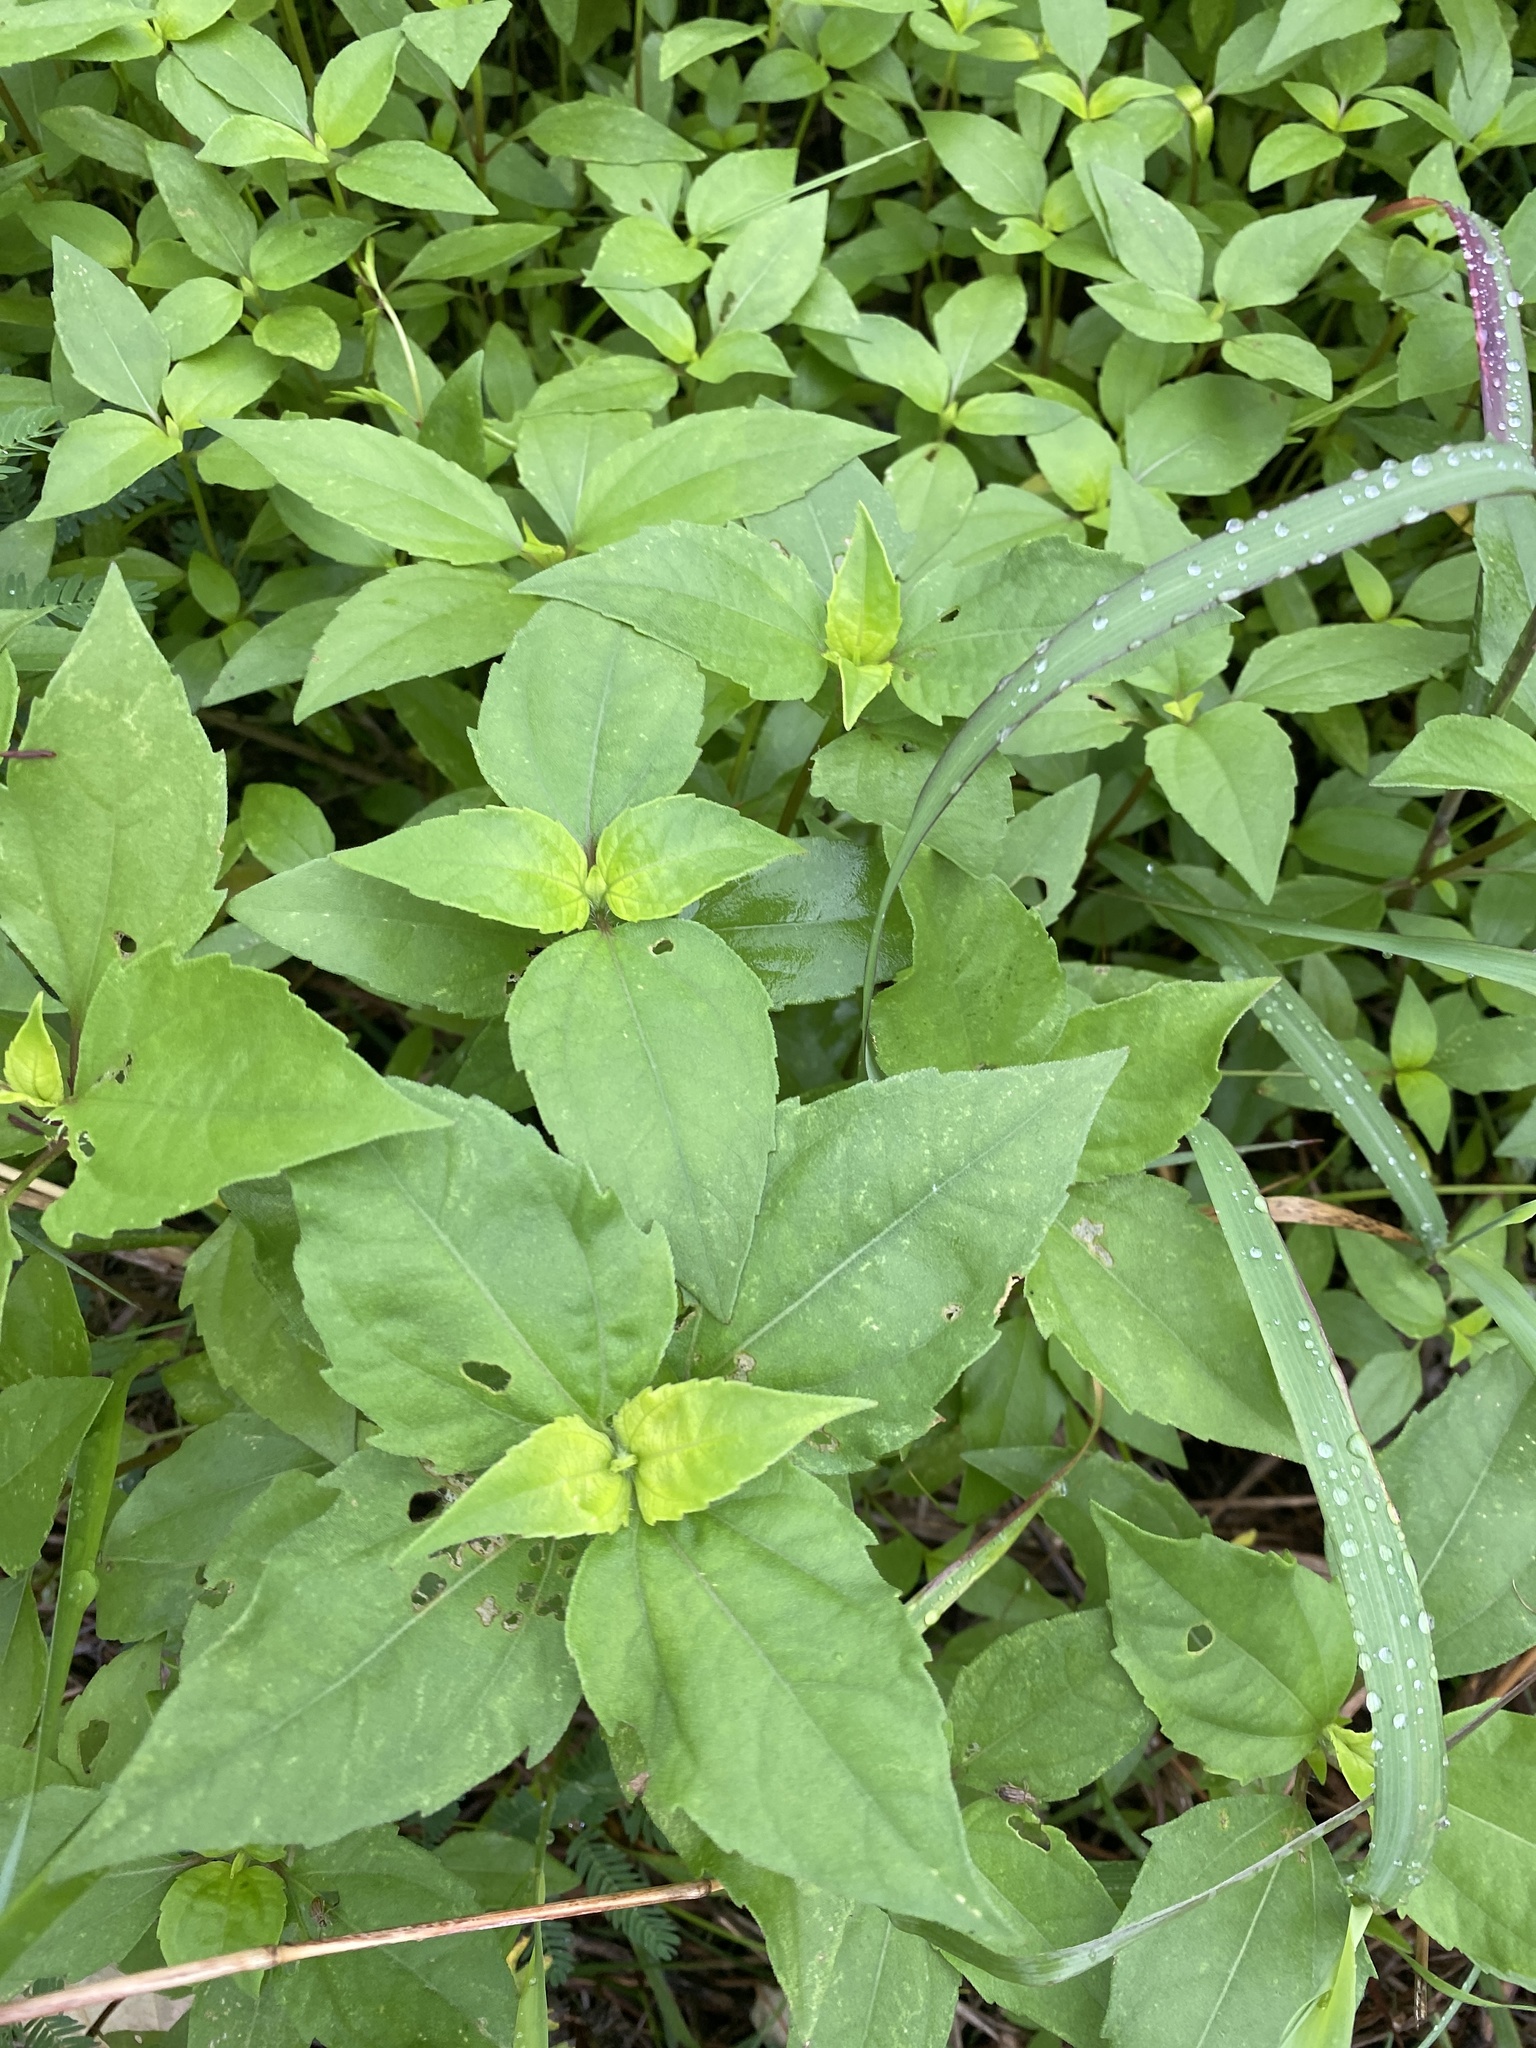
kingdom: Plantae
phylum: Tracheophyta
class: Magnoliopsida
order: Asterales
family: Asteraceae
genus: Iva
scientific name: Iva annua
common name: Marsh-elder
